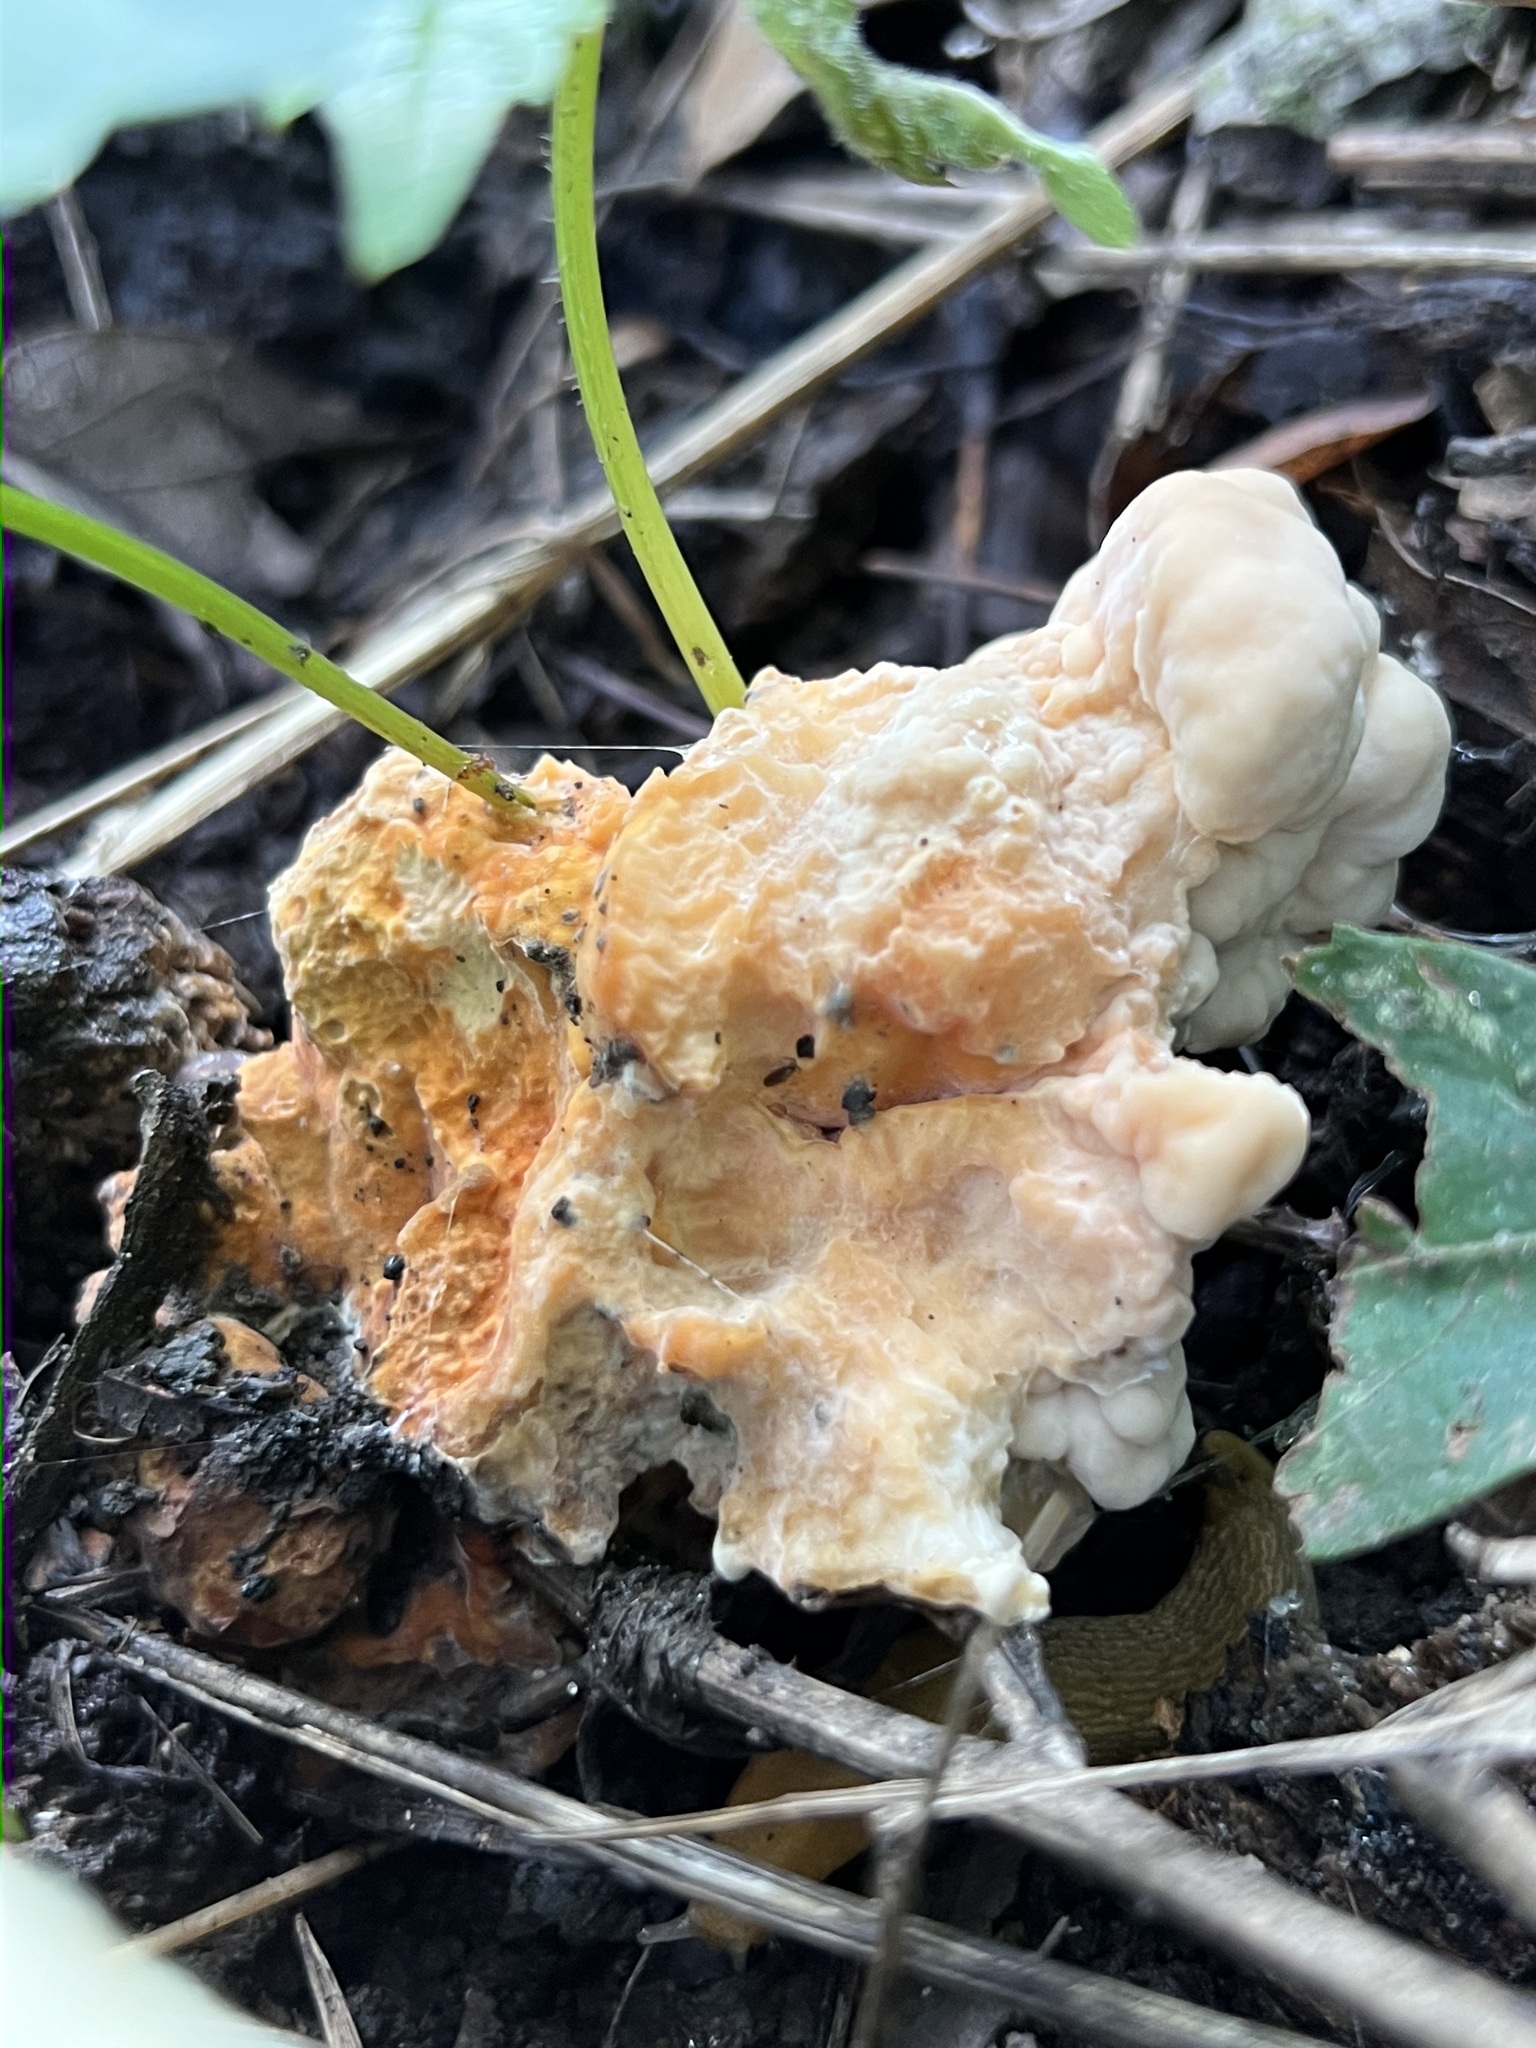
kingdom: Fungi
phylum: Basidiomycota
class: Agaricomycetes
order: Polyporales
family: Laetiporaceae
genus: Laetiporus
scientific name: Laetiporus sulphureus
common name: Chicken of the woods
